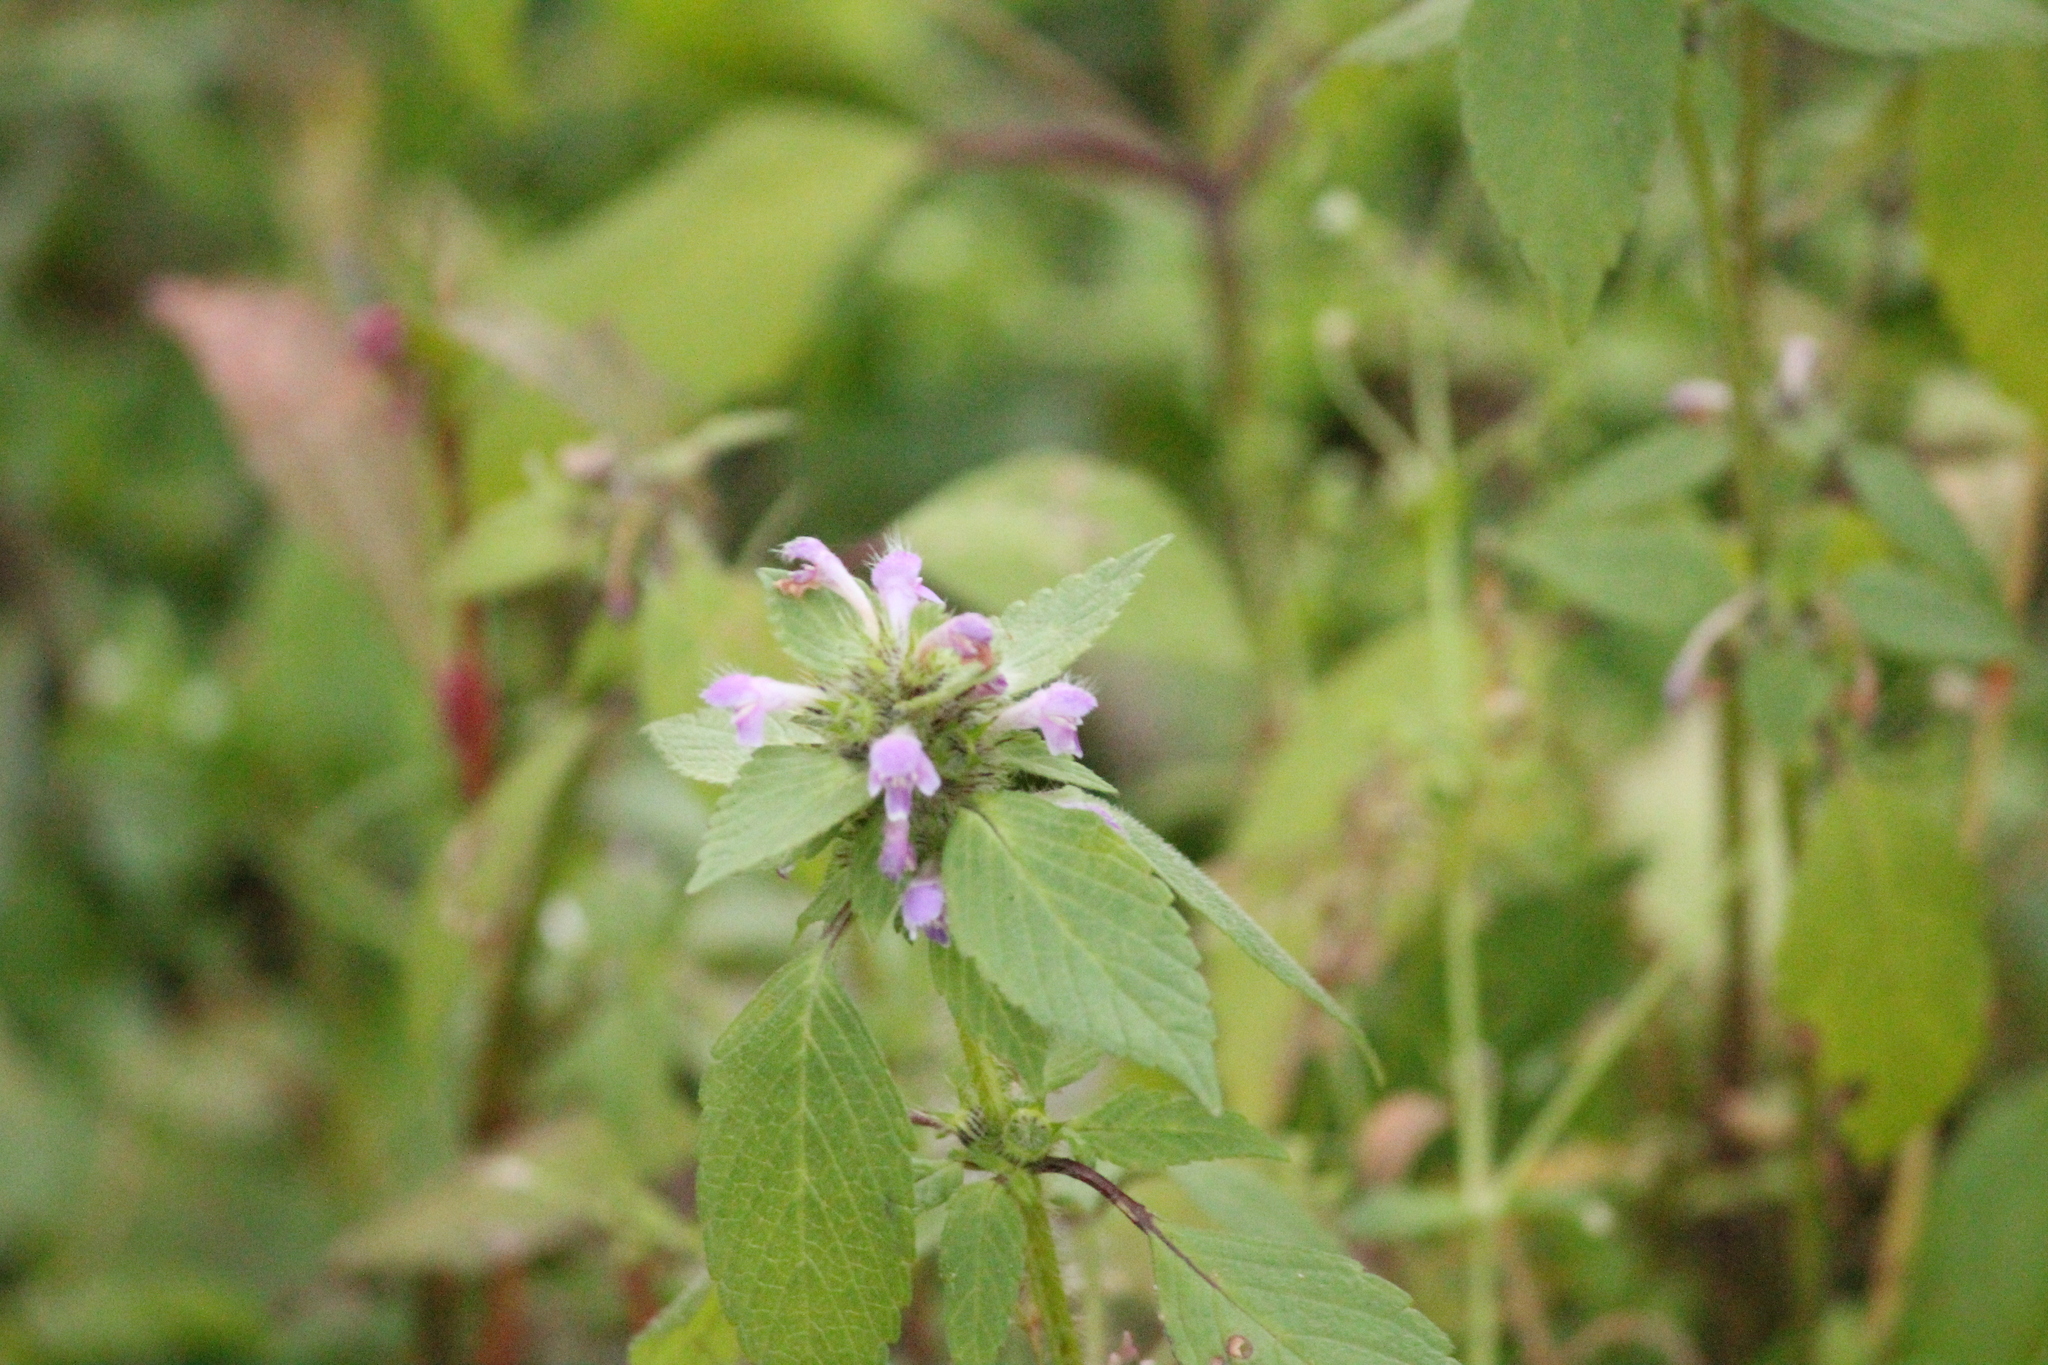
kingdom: Plantae
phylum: Tracheophyta
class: Magnoliopsida
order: Lamiales
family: Lamiaceae
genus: Galeopsis
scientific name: Galeopsis bifida
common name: Bifid hemp-nettle
